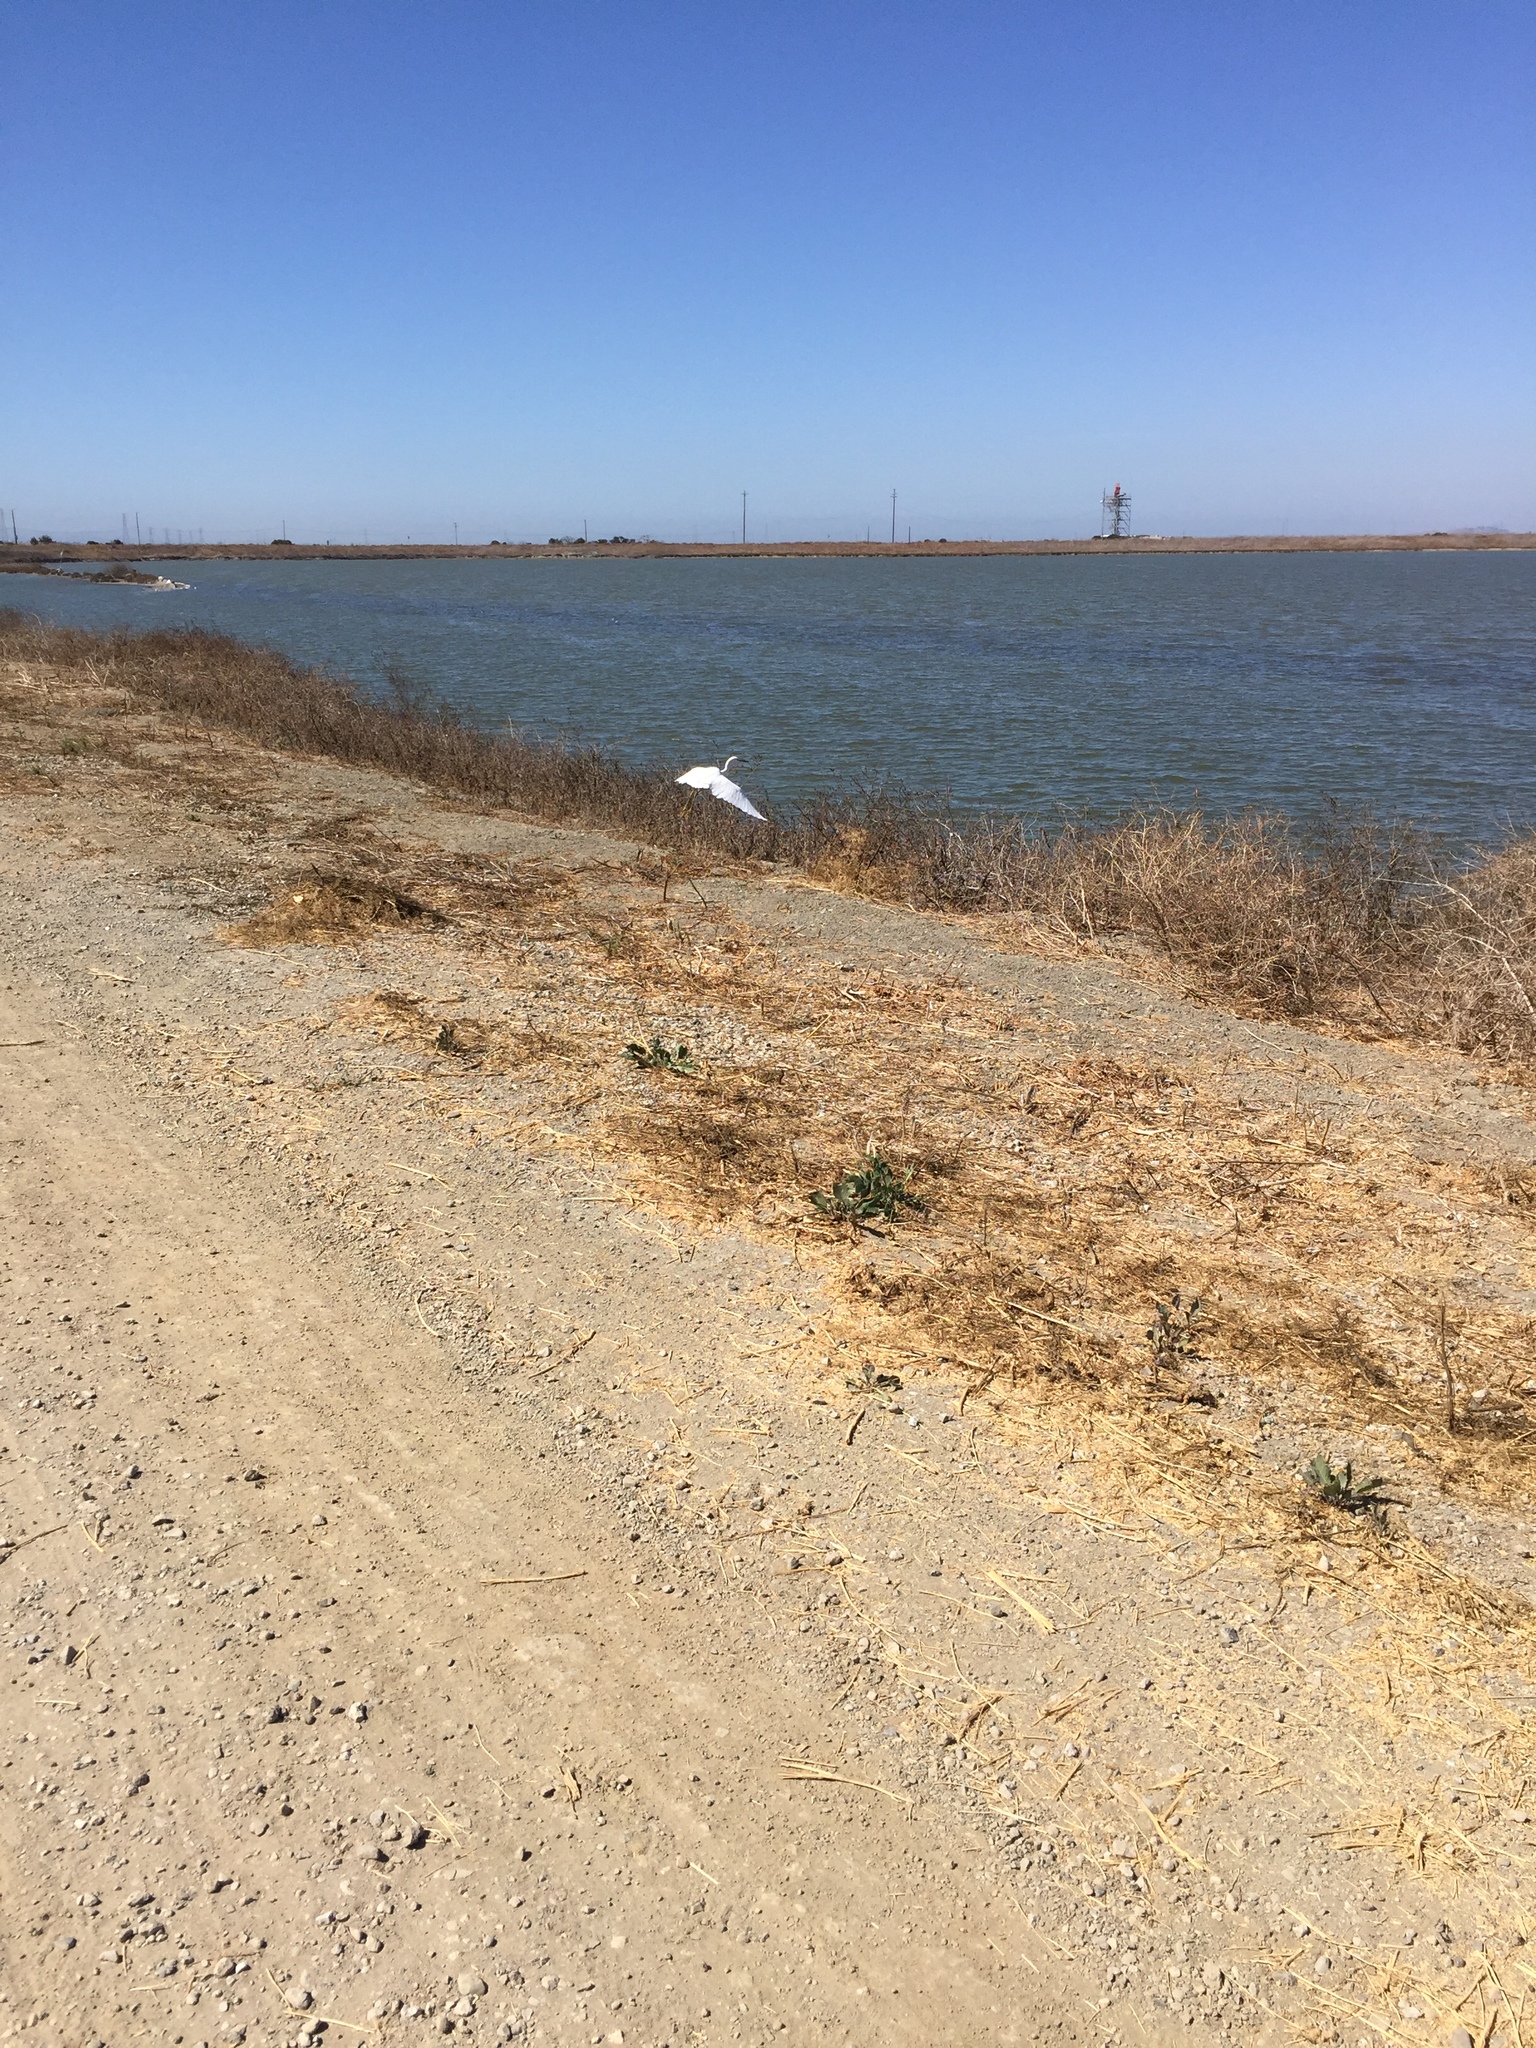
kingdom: Animalia
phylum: Chordata
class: Aves
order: Pelecaniformes
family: Ardeidae
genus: Egretta
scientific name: Egretta thula
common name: Snowy egret
